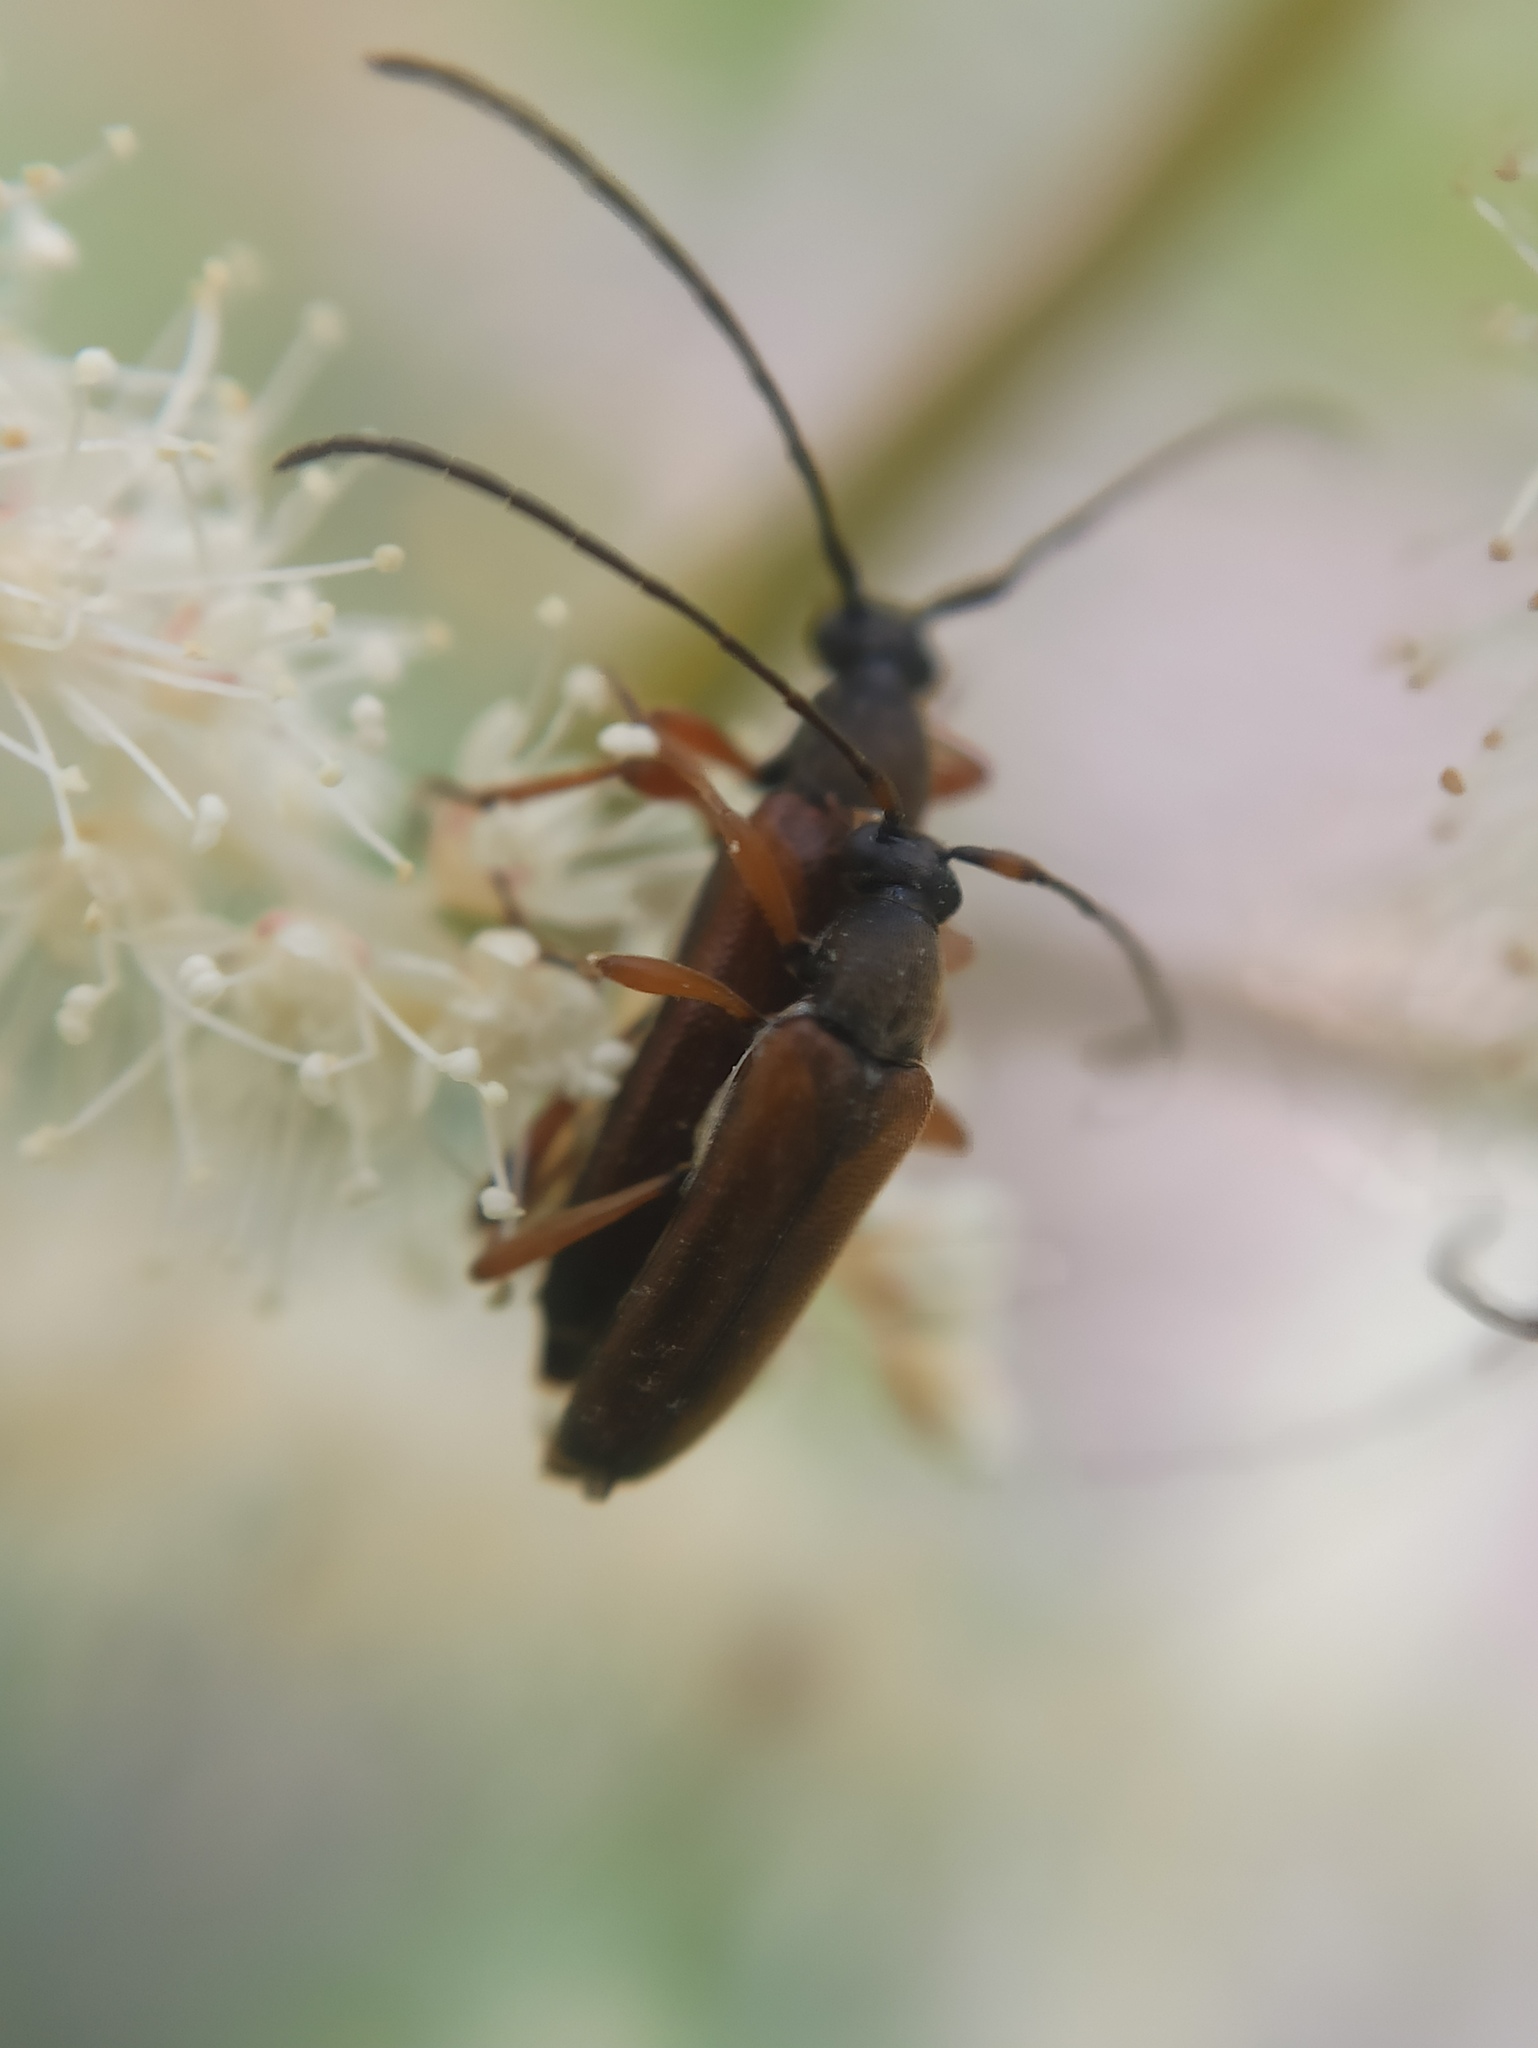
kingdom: Animalia
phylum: Arthropoda
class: Insecta
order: Coleoptera
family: Cerambycidae
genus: Alosterna
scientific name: Alosterna tabacicolor
